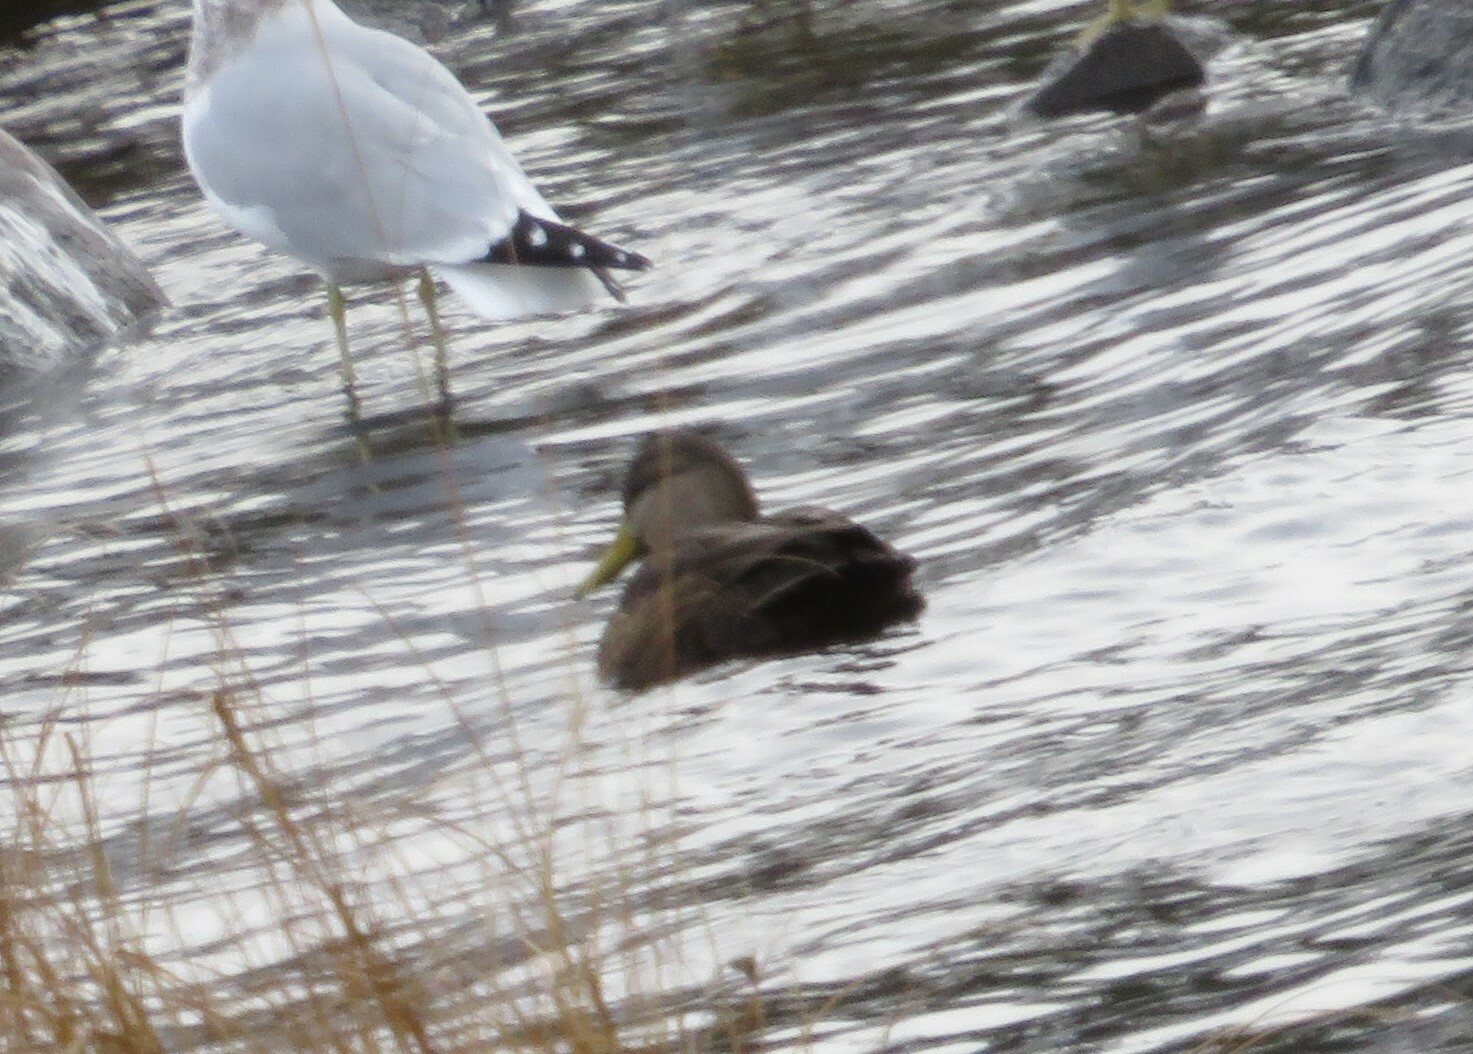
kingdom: Animalia
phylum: Chordata
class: Aves
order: Anseriformes
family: Anatidae
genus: Anas
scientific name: Anas rubripes
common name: American black duck
